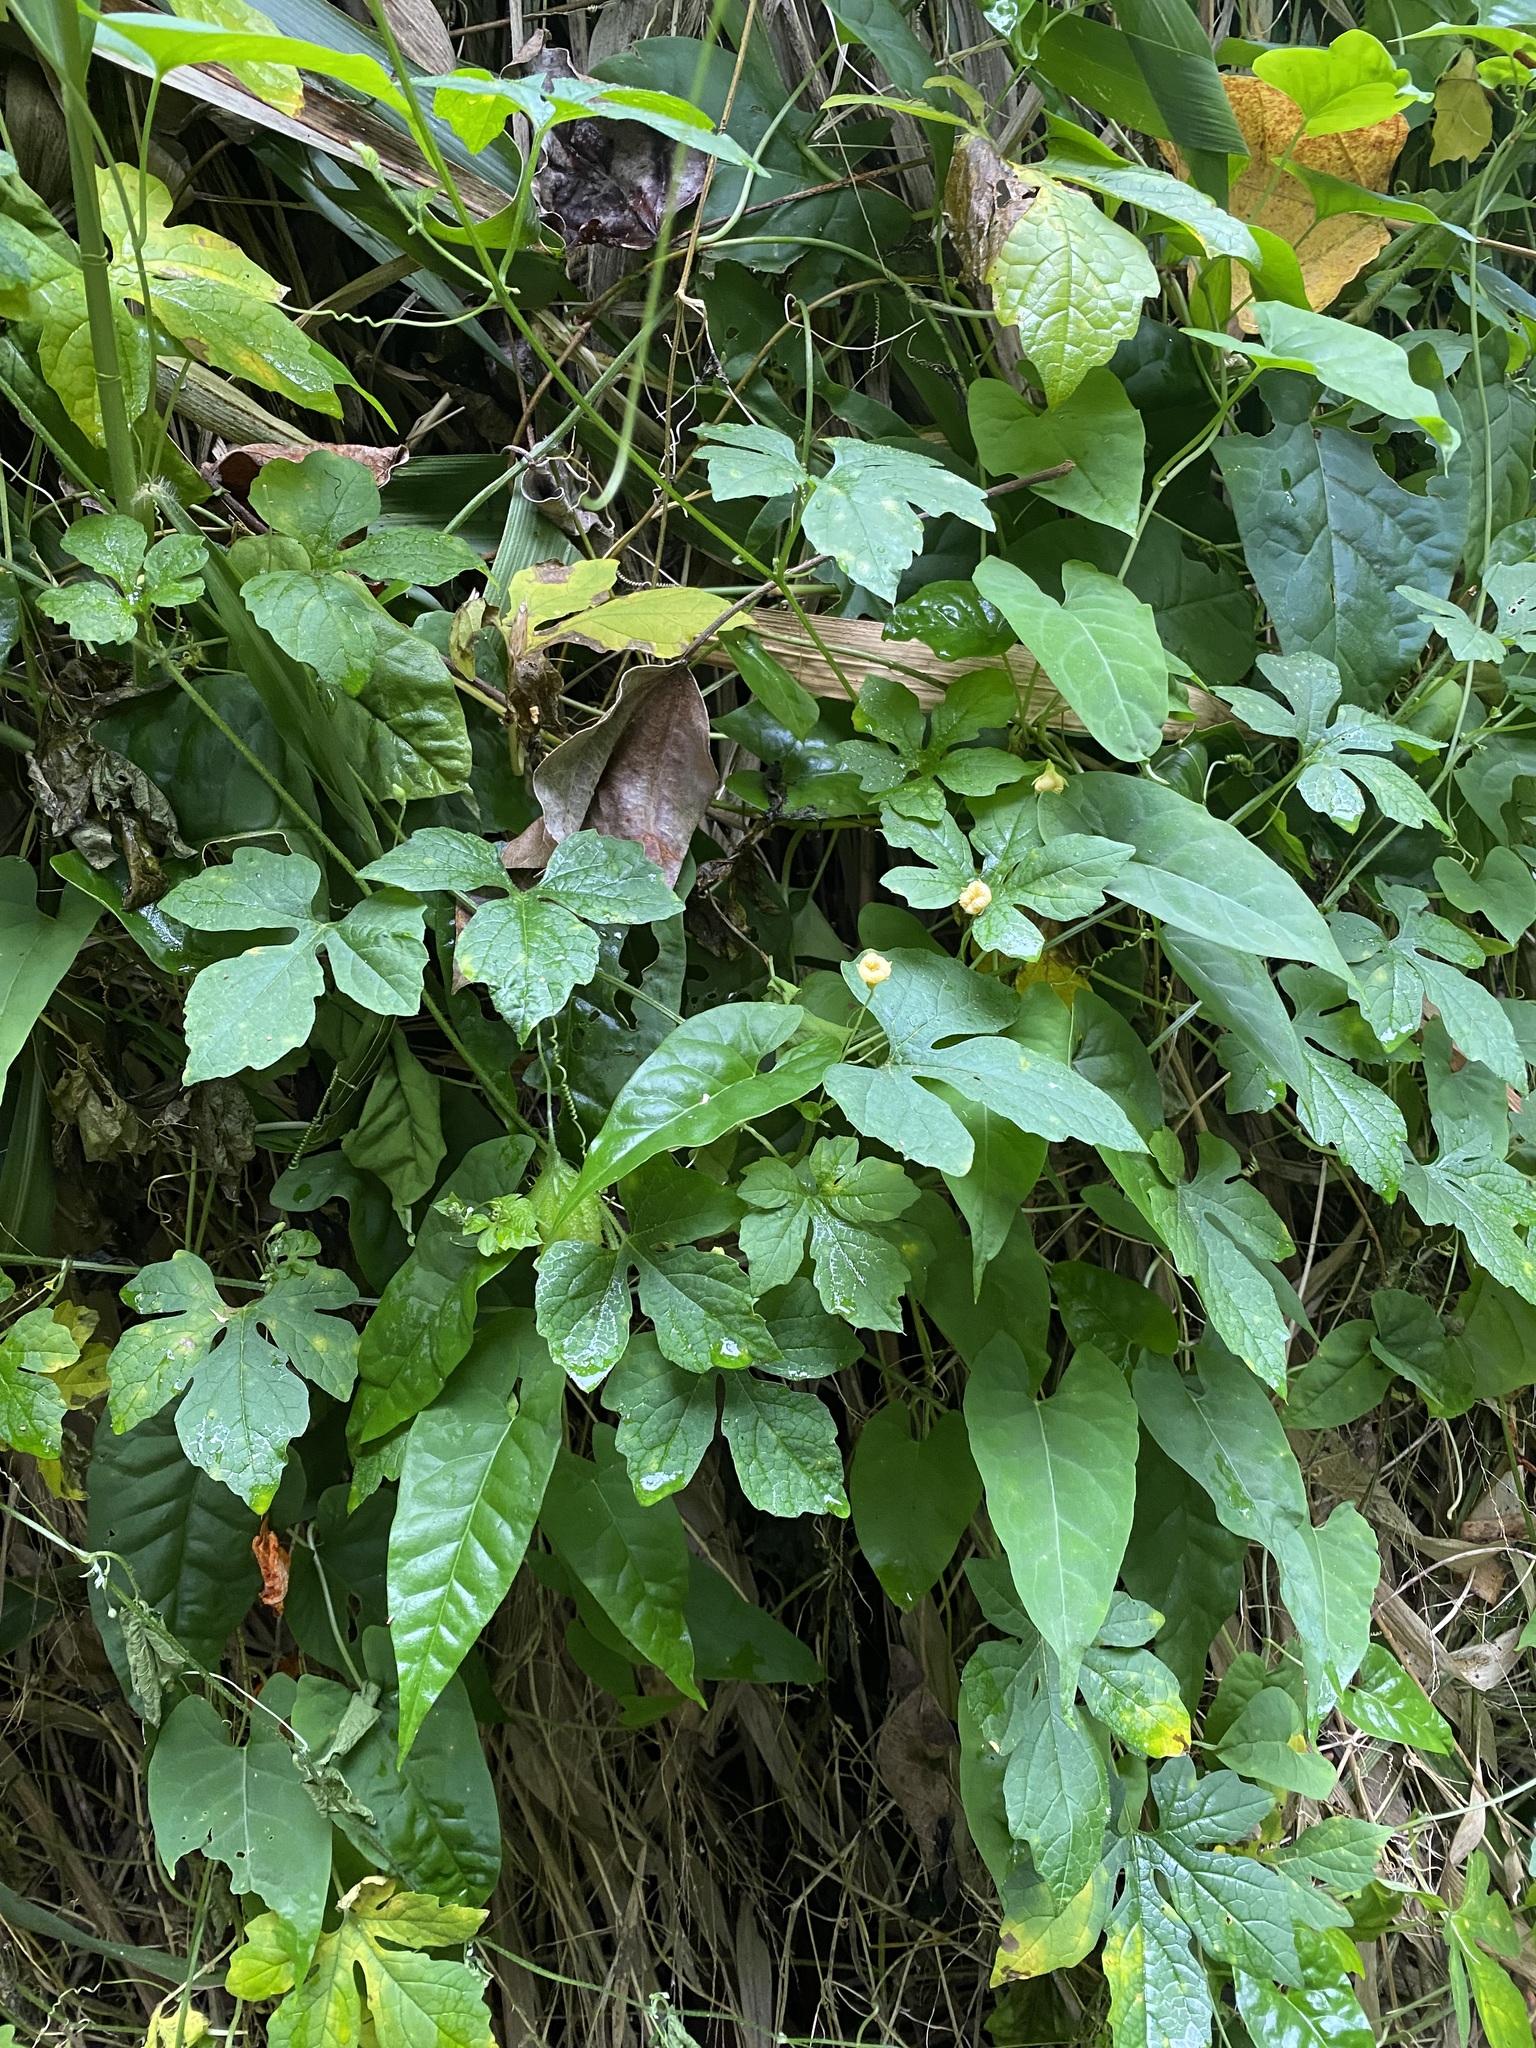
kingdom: Plantae
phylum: Tracheophyta
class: Magnoliopsida
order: Cucurbitales
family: Cucurbitaceae
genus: Momordica
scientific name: Momordica charantia
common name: Balsampear
